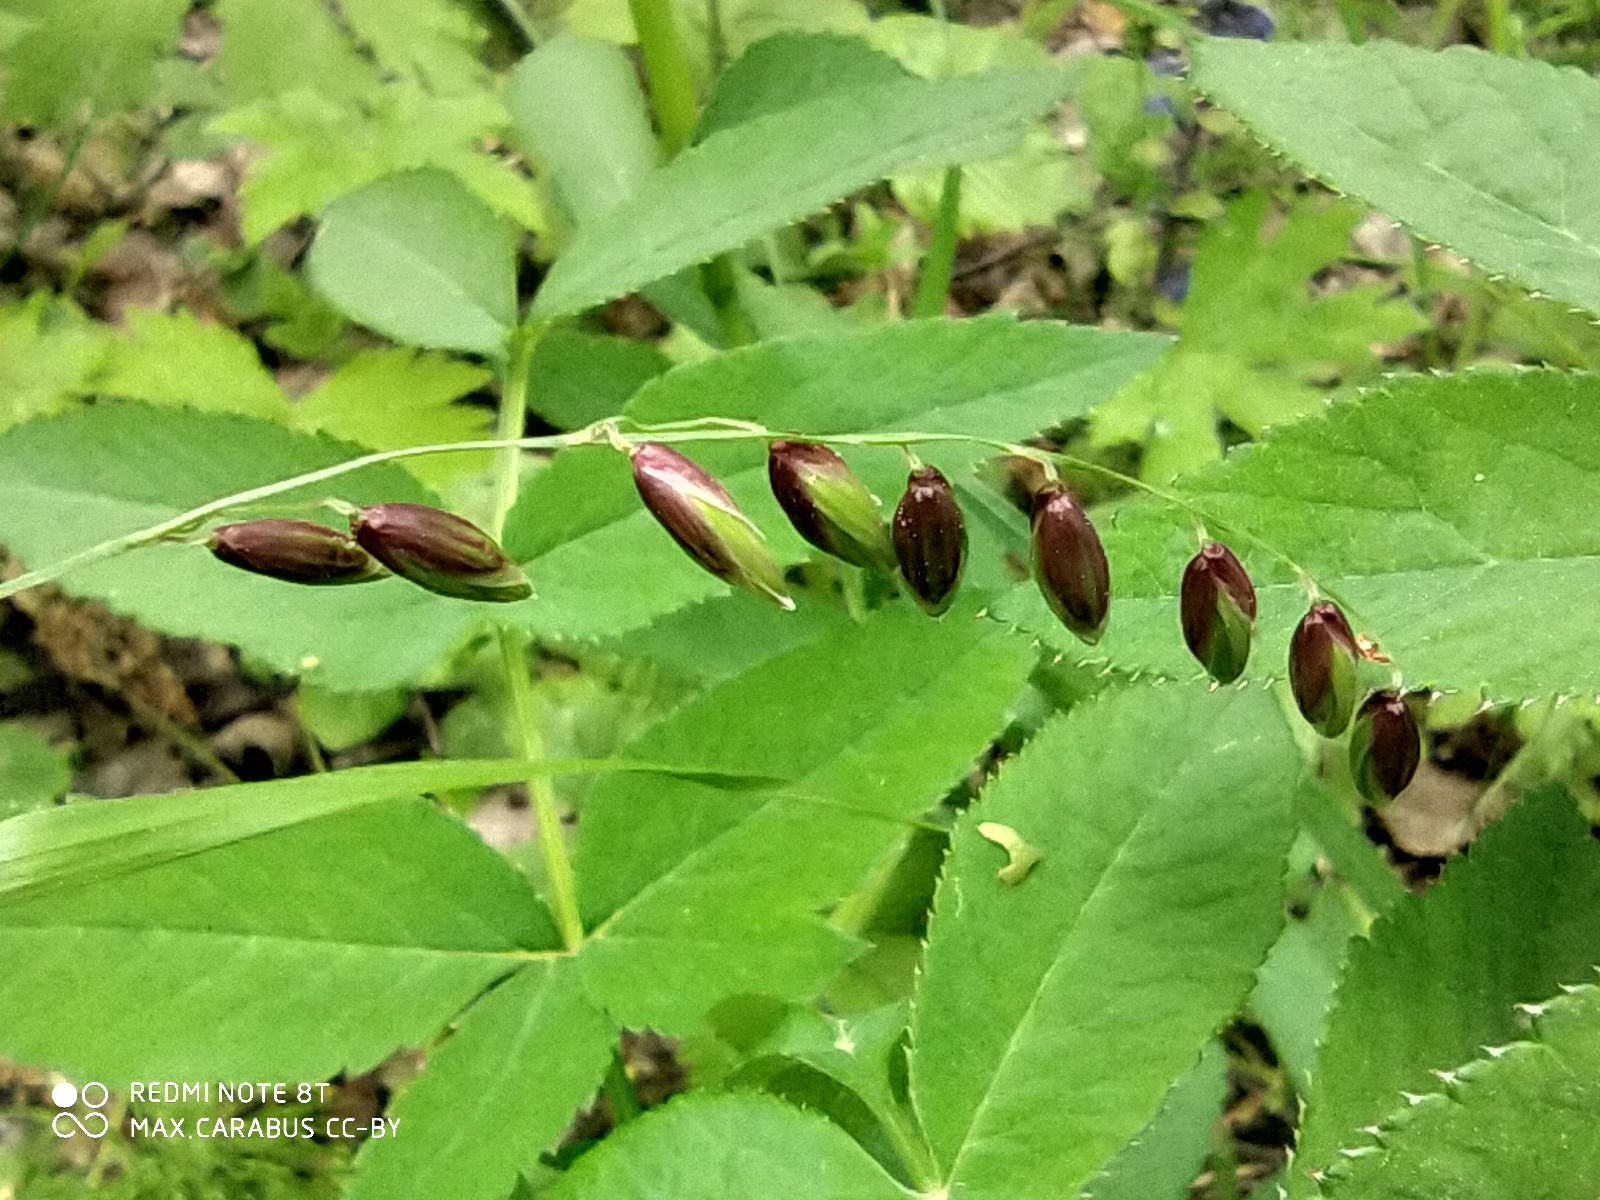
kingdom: Plantae
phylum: Tracheophyta
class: Liliopsida
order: Poales
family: Poaceae
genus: Melica
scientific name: Melica nutans
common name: Mountain melick
